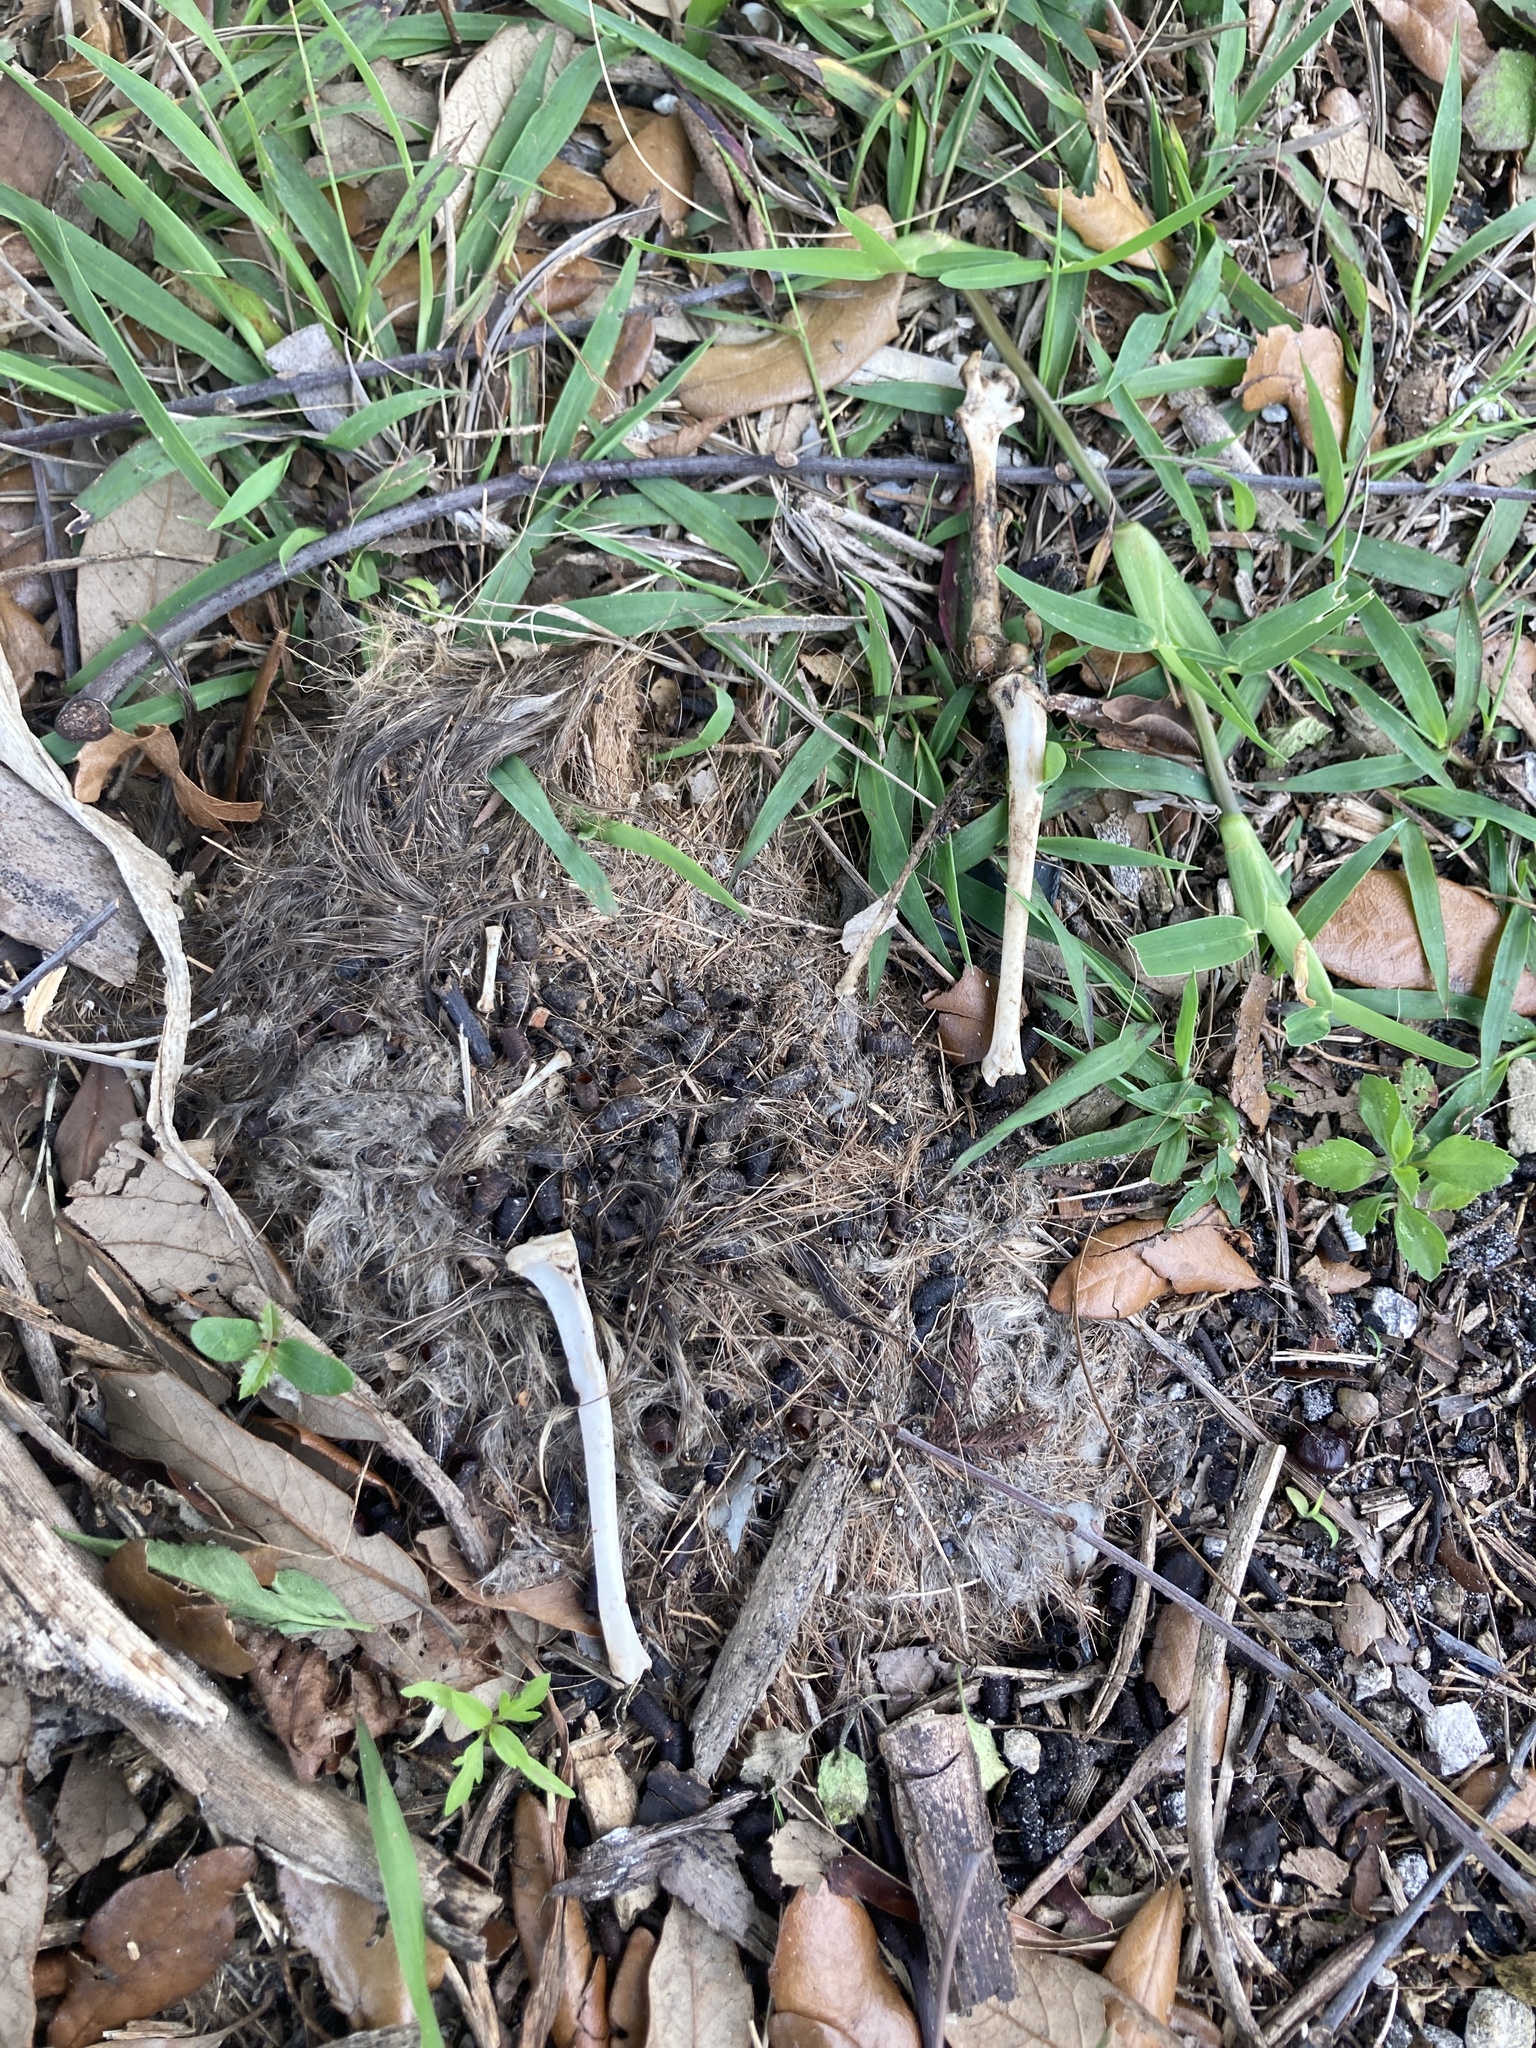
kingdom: Animalia
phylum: Chordata
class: Mammalia
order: Rodentia
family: Sciuridae
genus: Sciurus
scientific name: Sciurus carolinensis
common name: Eastern gray squirrel
